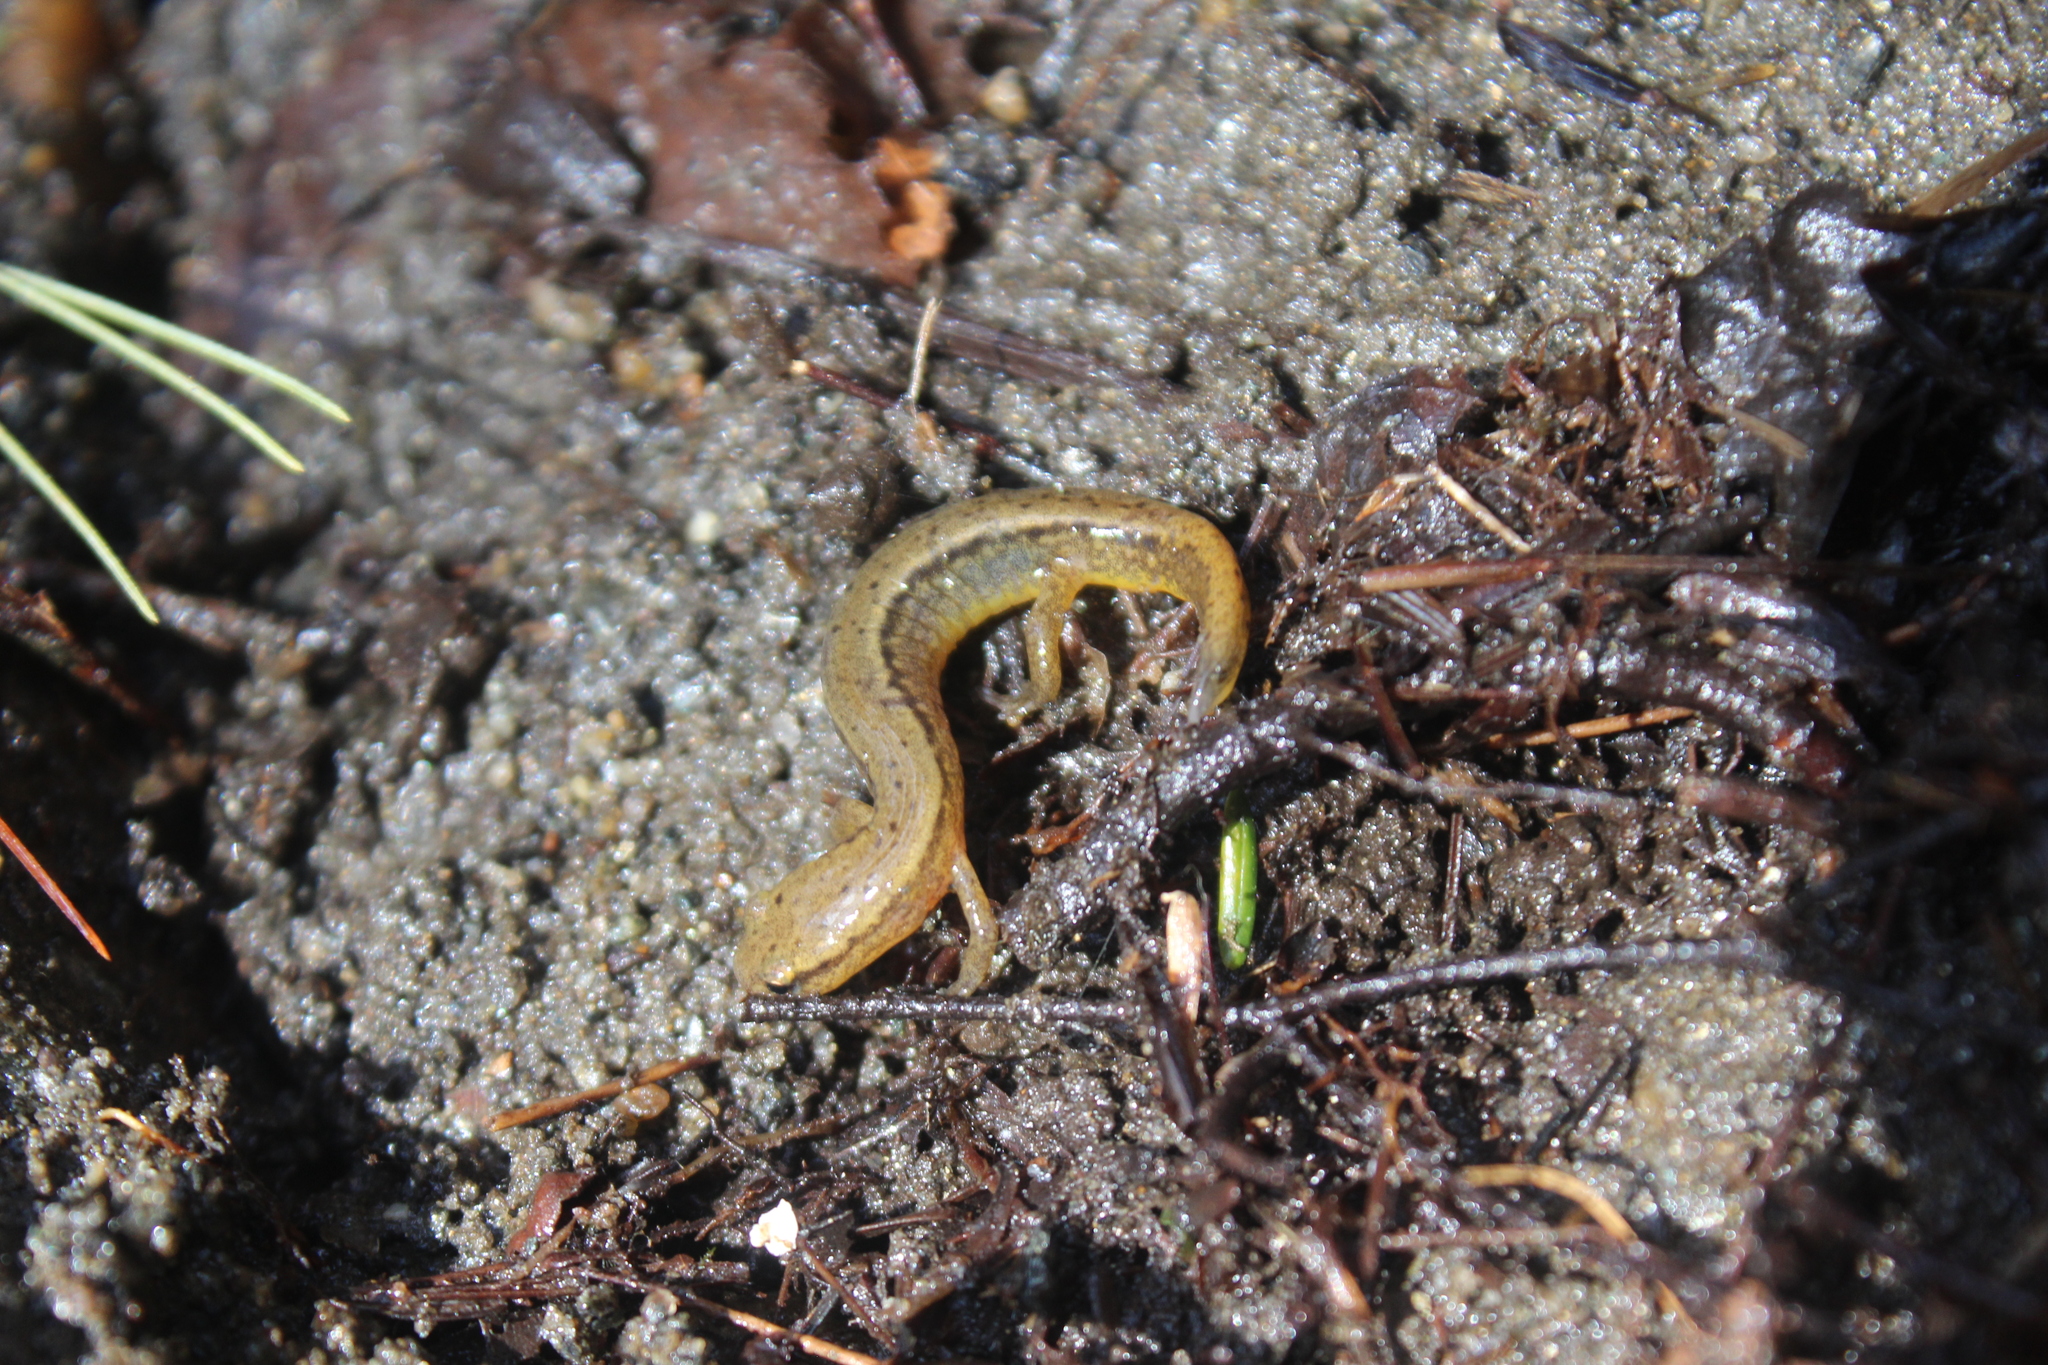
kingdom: Animalia
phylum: Chordata
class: Amphibia
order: Caudata
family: Plethodontidae
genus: Eurycea
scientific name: Eurycea bislineata
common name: Northern two-lined salamander
